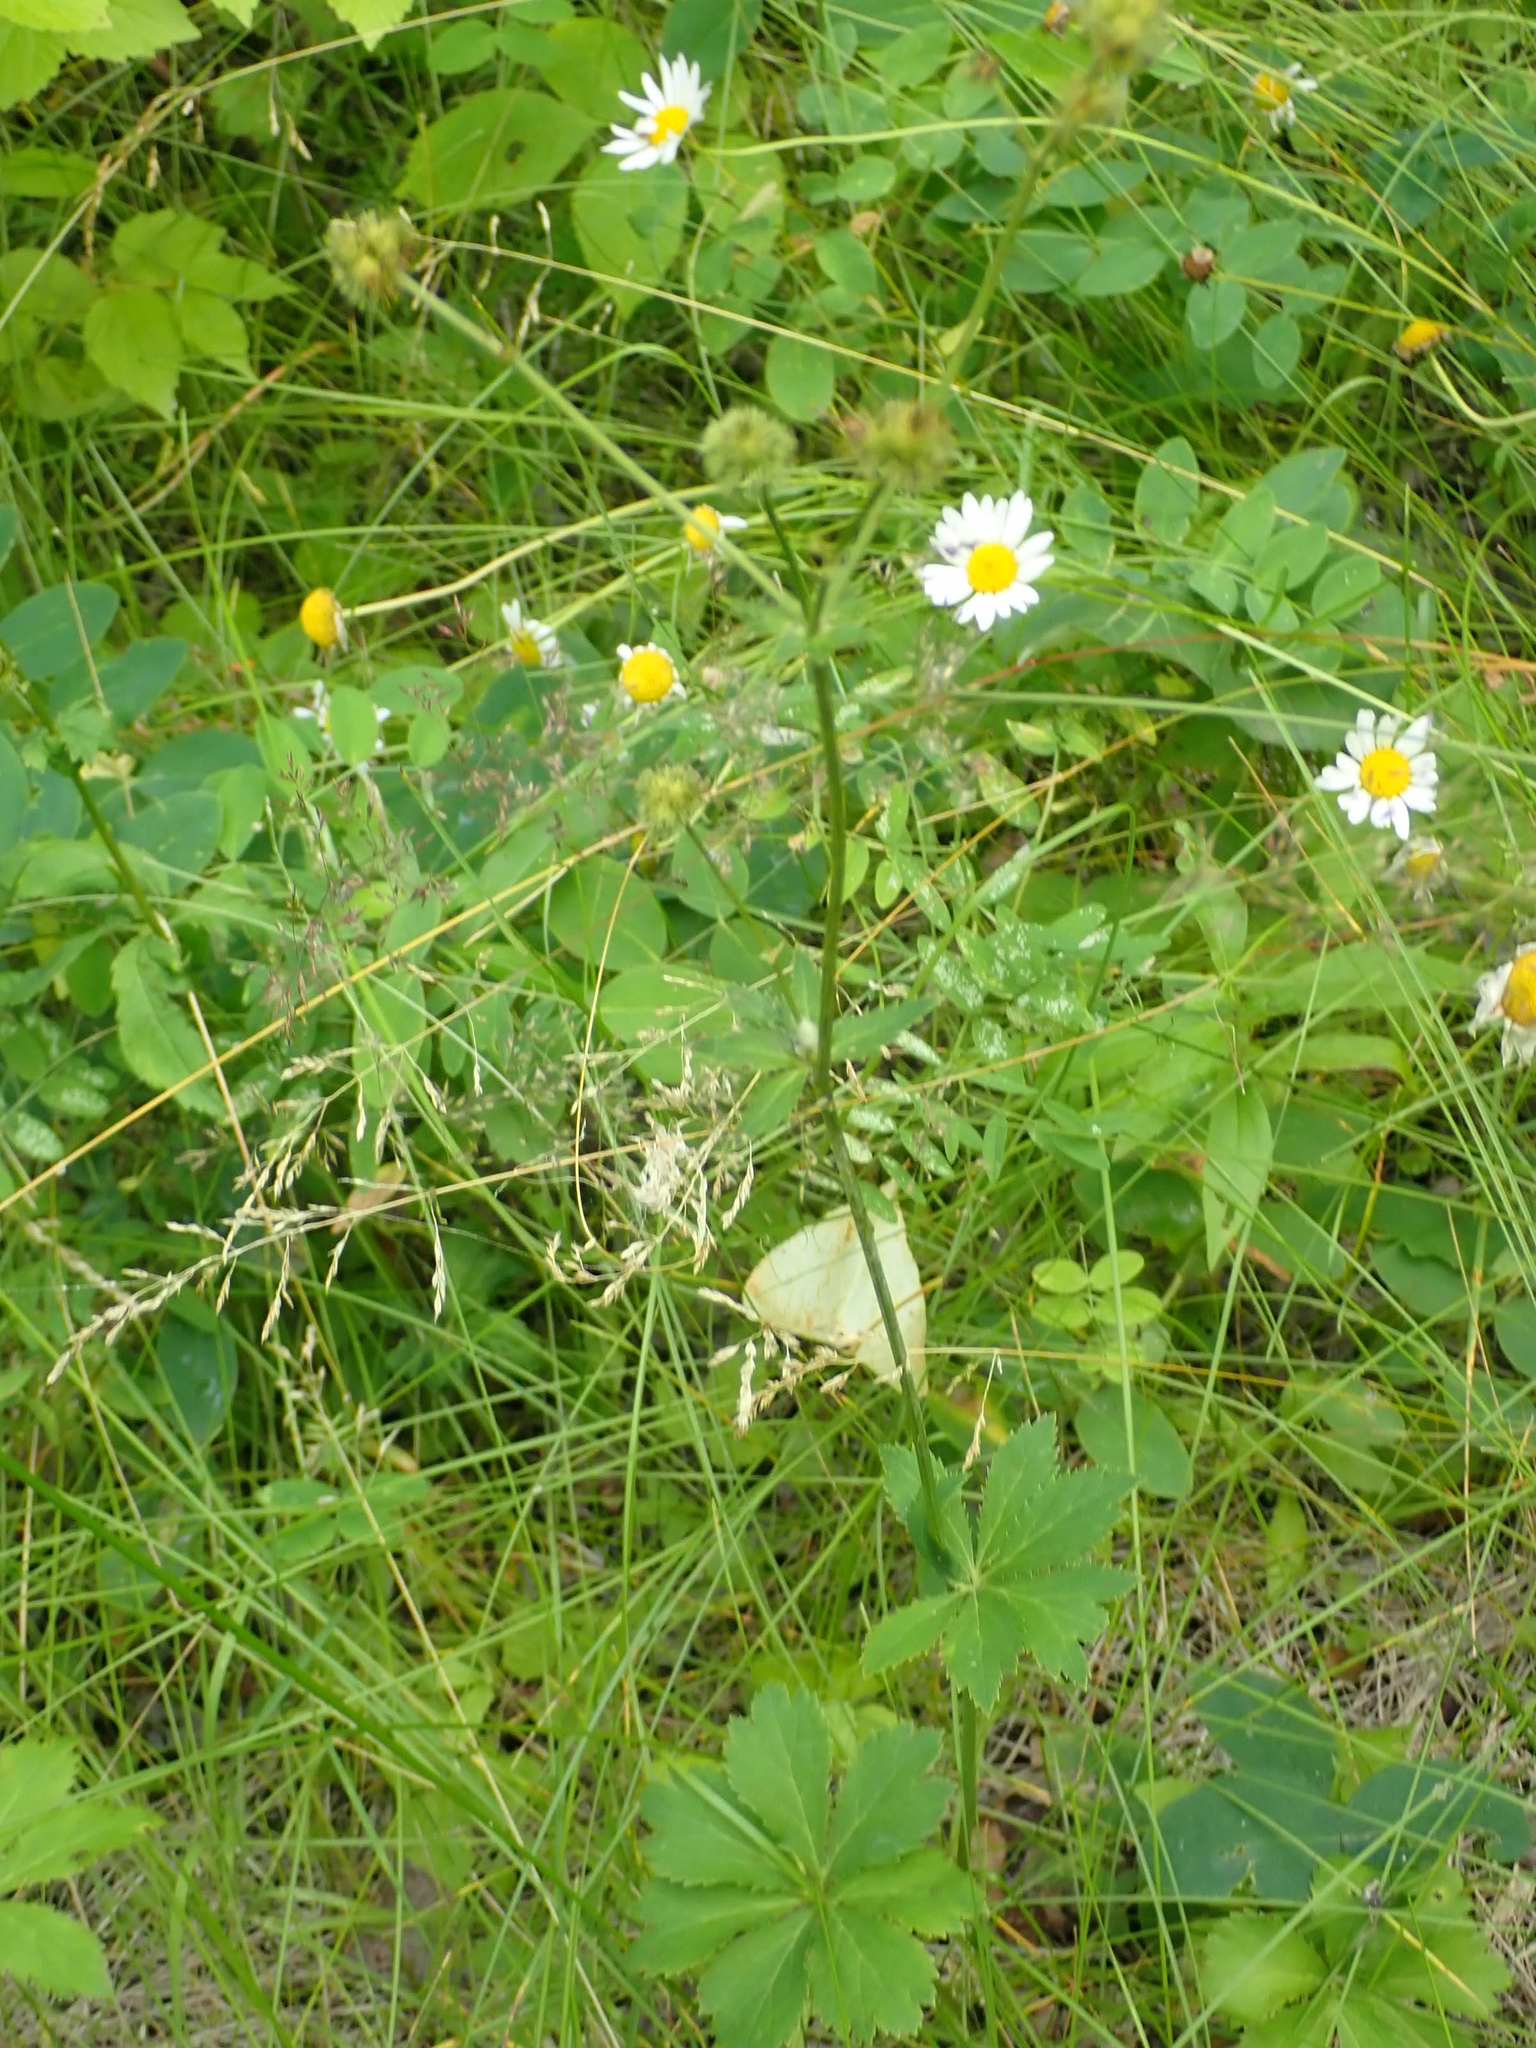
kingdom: Plantae
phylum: Tracheophyta
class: Magnoliopsida
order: Apiales
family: Apiaceae
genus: Sanicula
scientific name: Sanicula marilandica
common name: Black snakeroot
